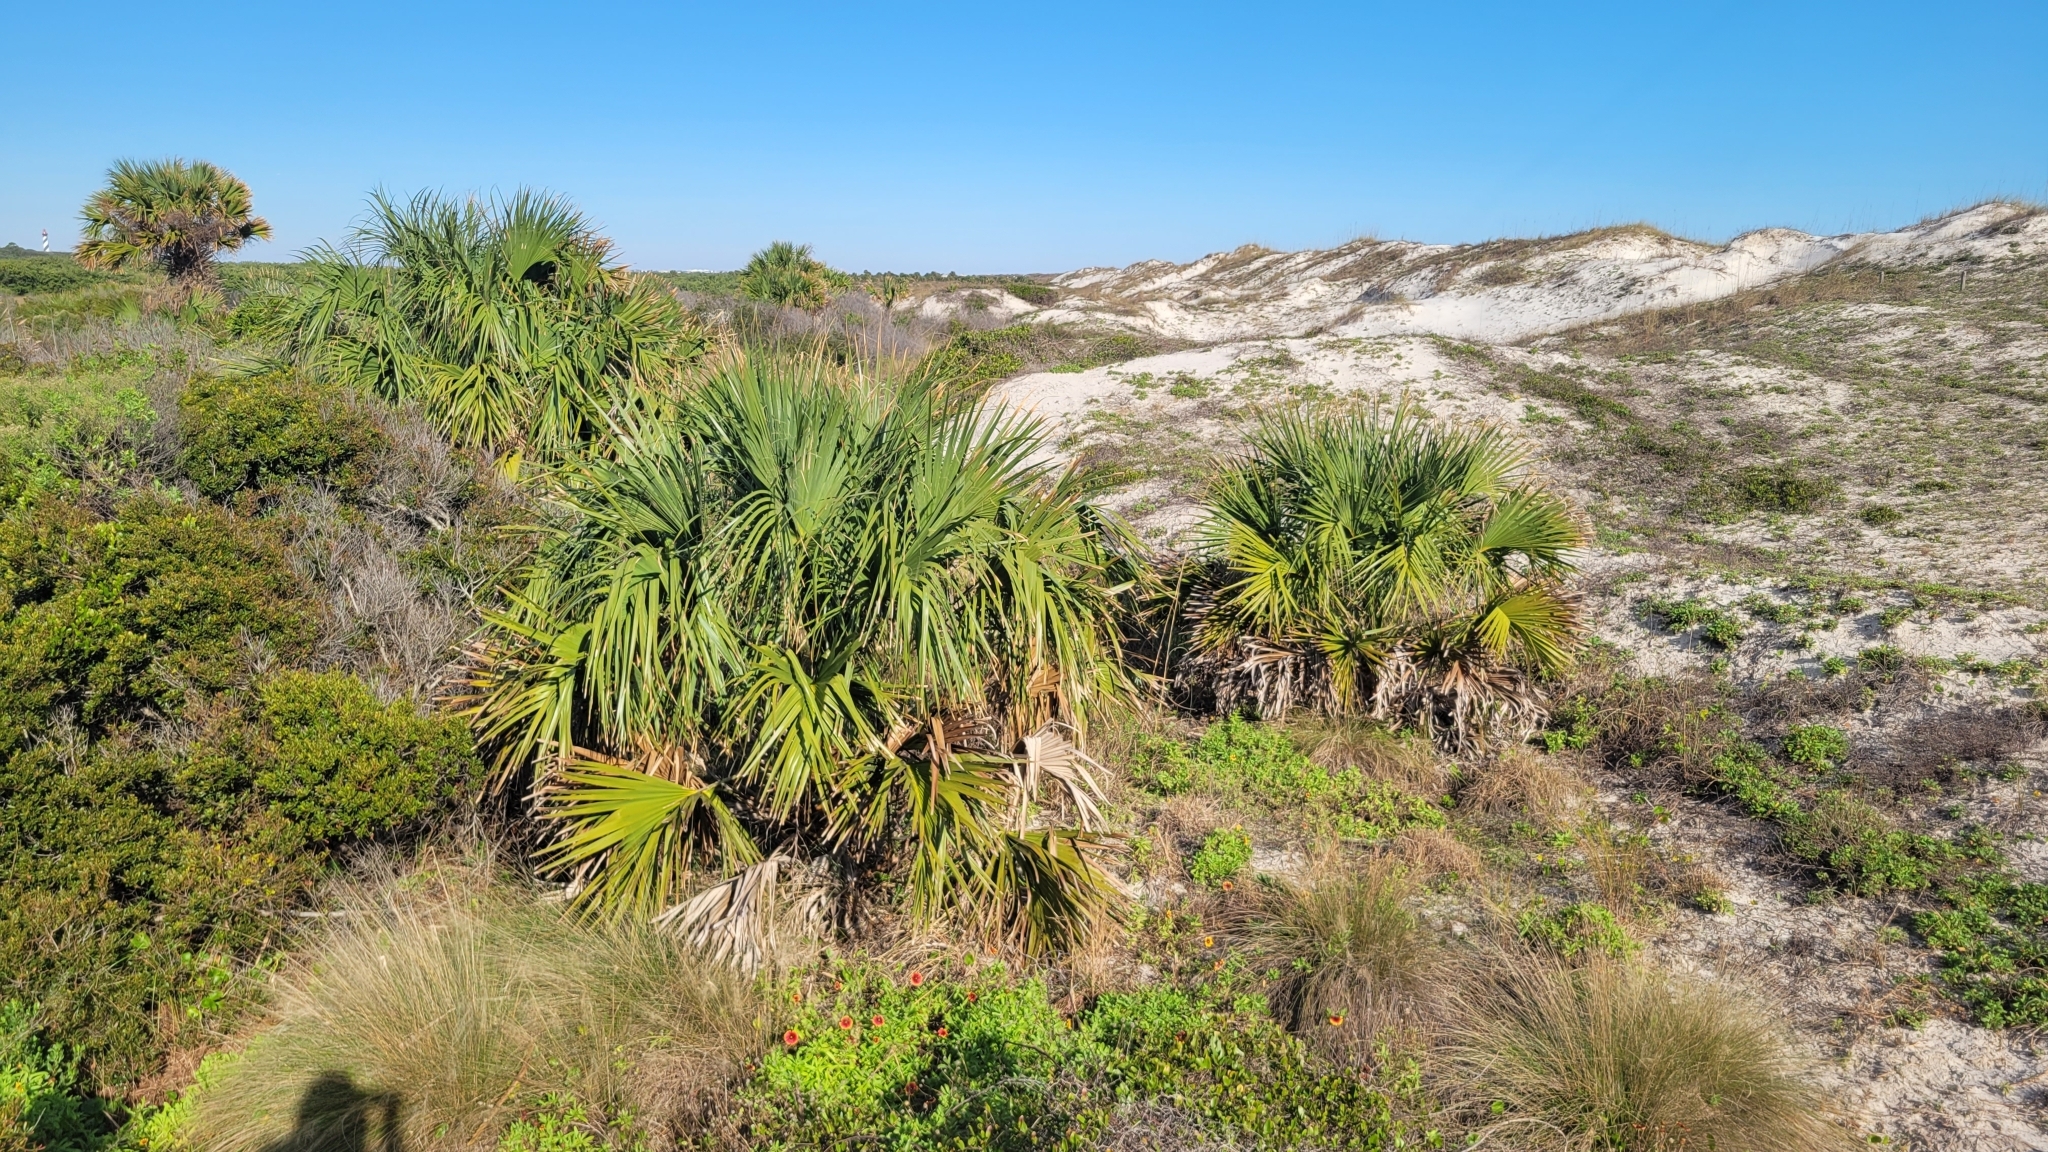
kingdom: Plantae
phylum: Tracheophyta
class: Liliopsida
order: Arecales
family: Arecaceae
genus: Sabal
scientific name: Sabal palmetto
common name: Blue palmetto
